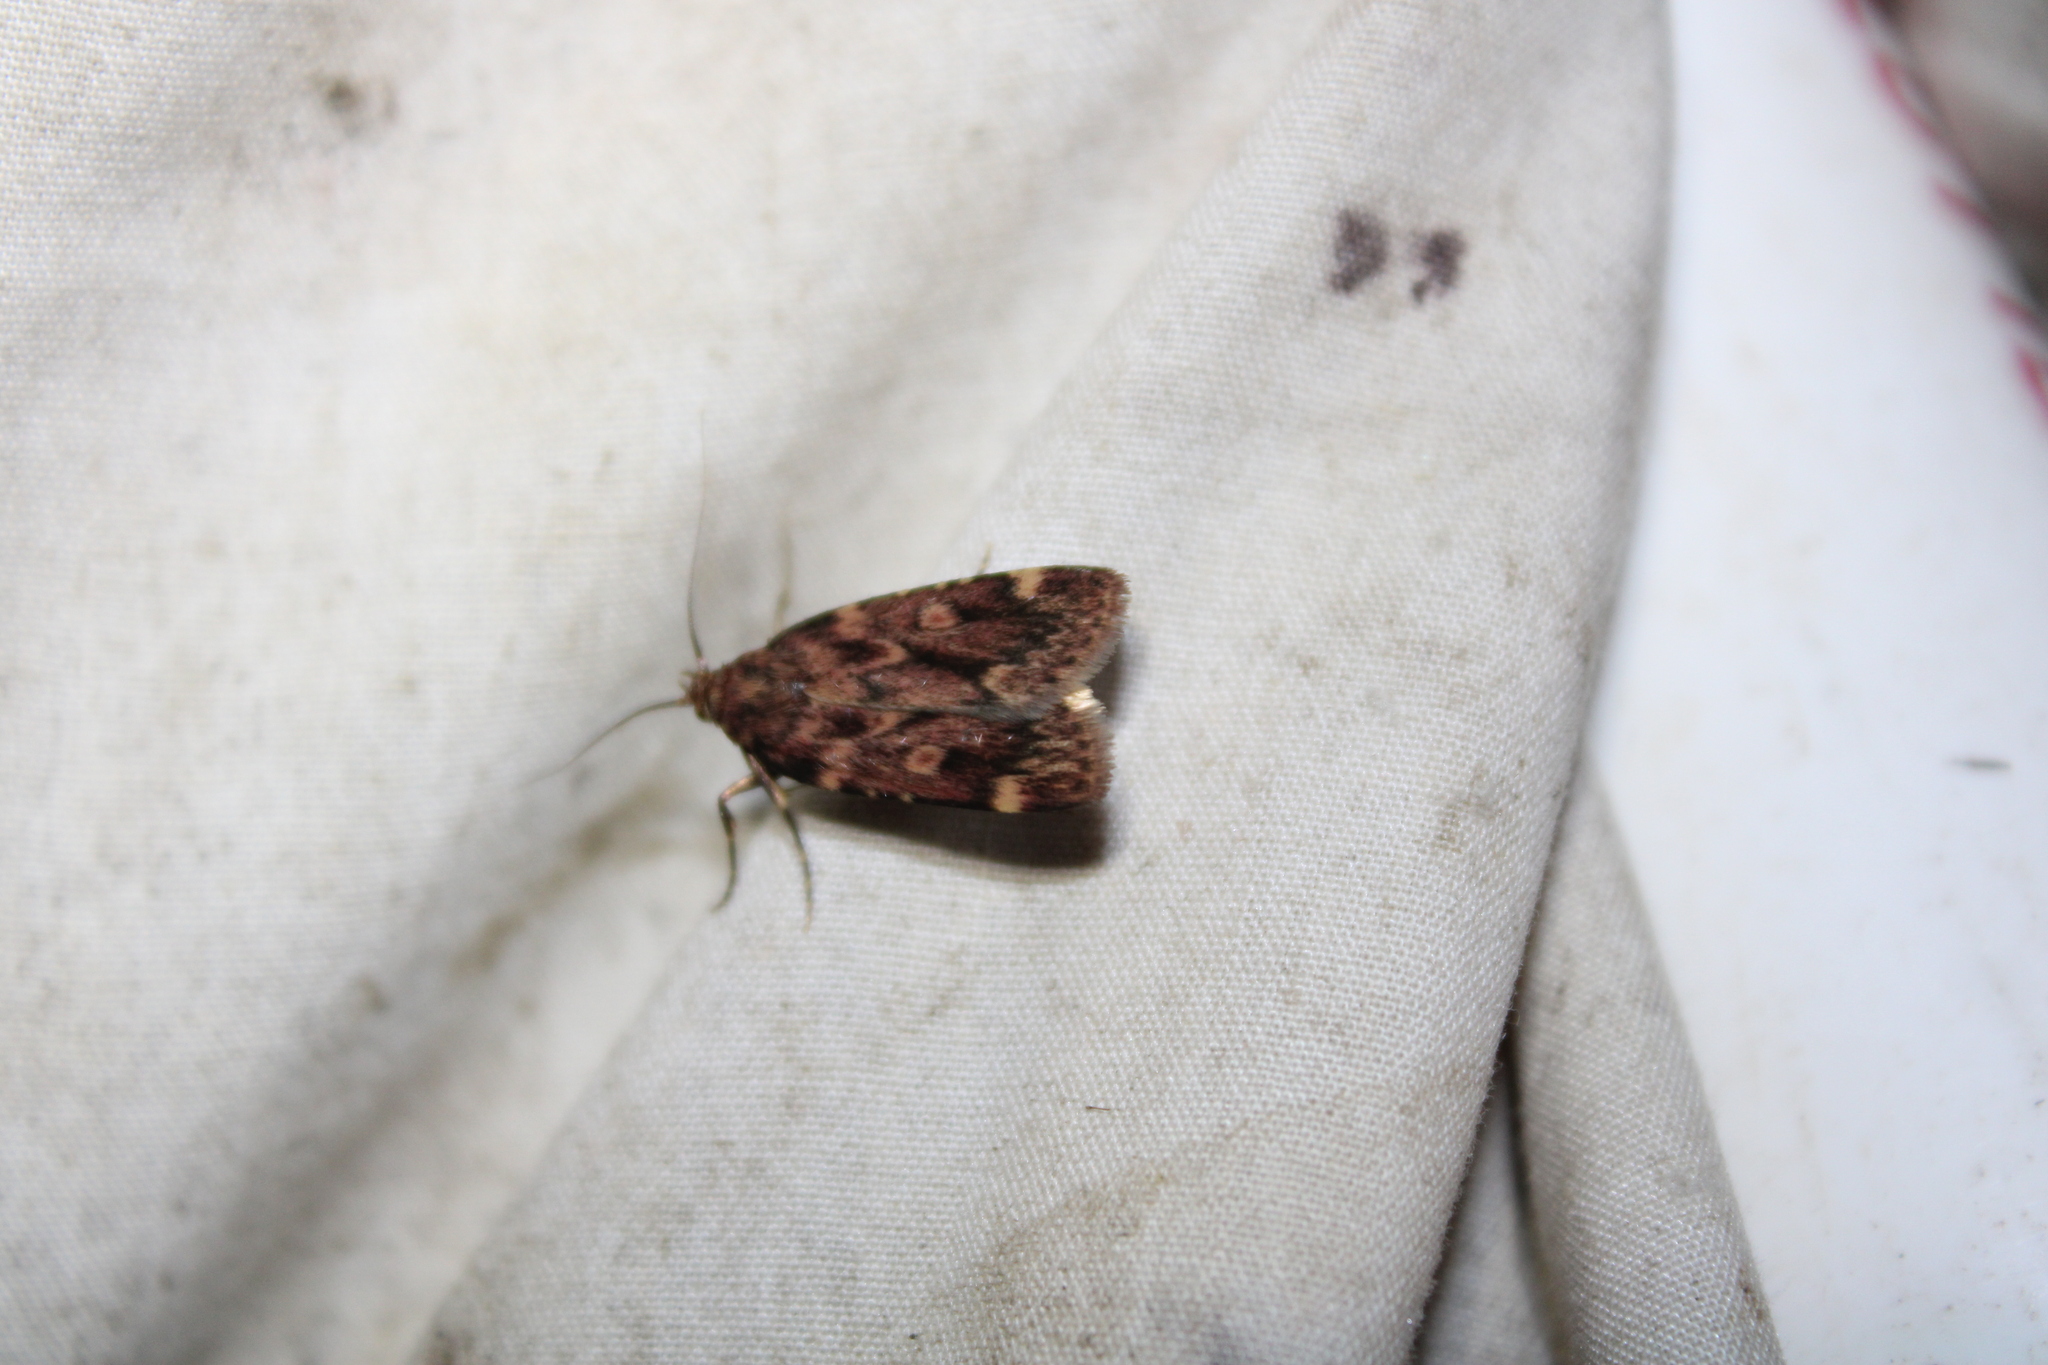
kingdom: Animalia
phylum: Arthropoda
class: Insecta
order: Lepidoptera
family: Pyralidae
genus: Aglossa
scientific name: Aglossa cuprina
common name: Grease moth
